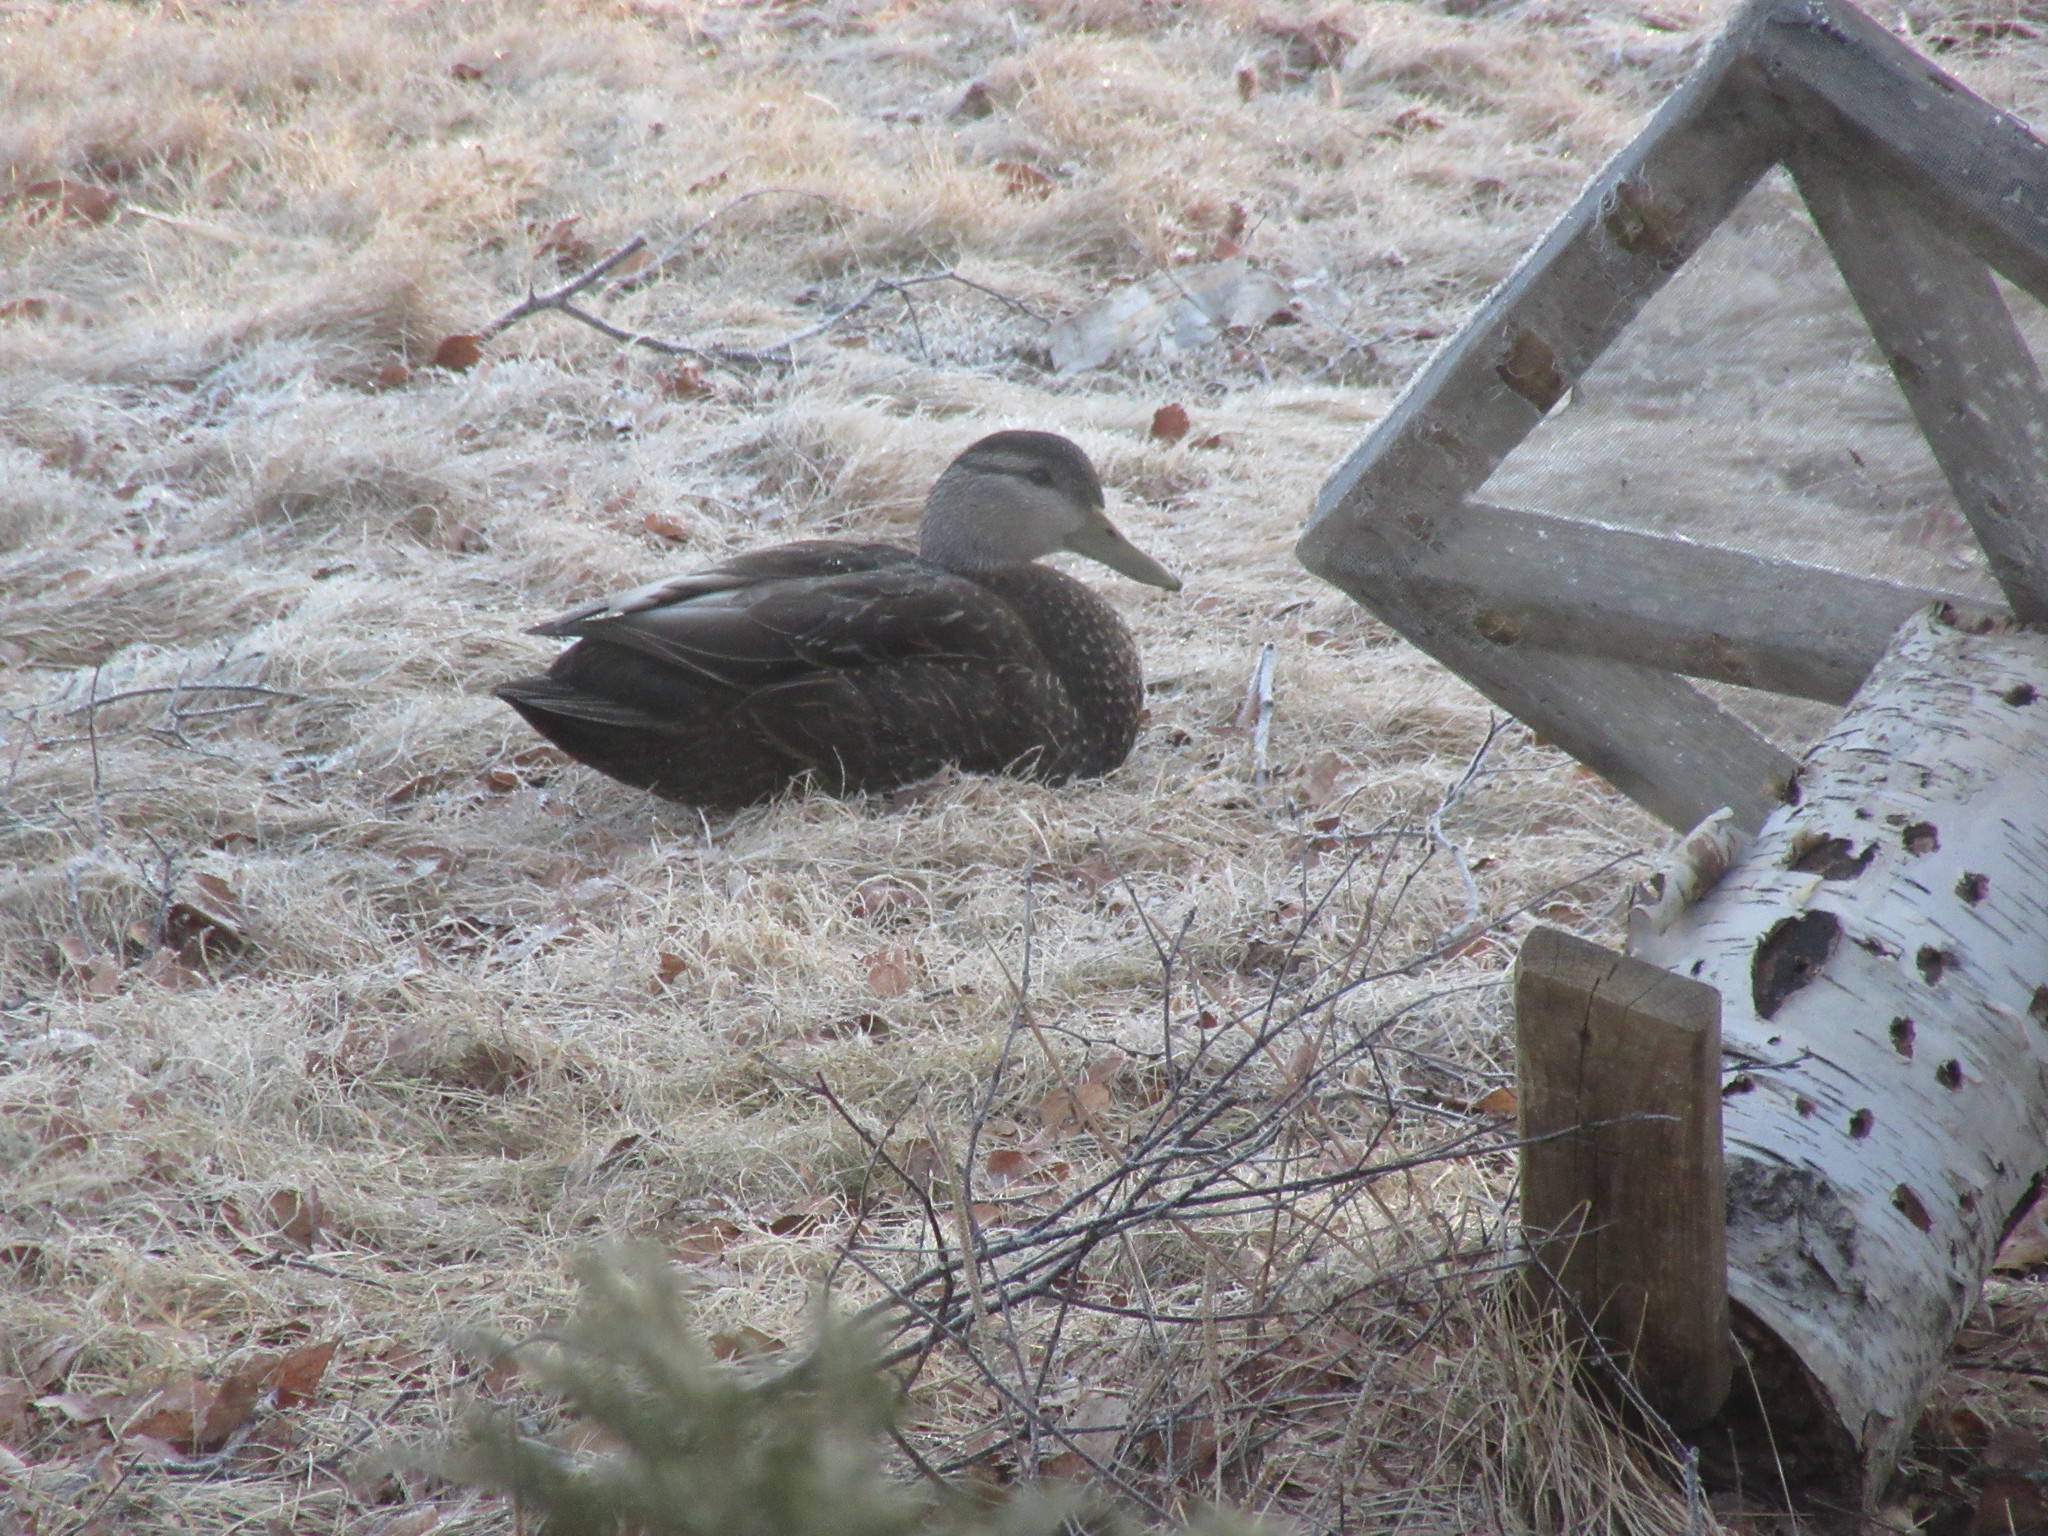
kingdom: Animalia
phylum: Chordata
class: Aves
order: Anseriformes
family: Anatidae
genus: Anas
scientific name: Anas rubripes
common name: American black duck
